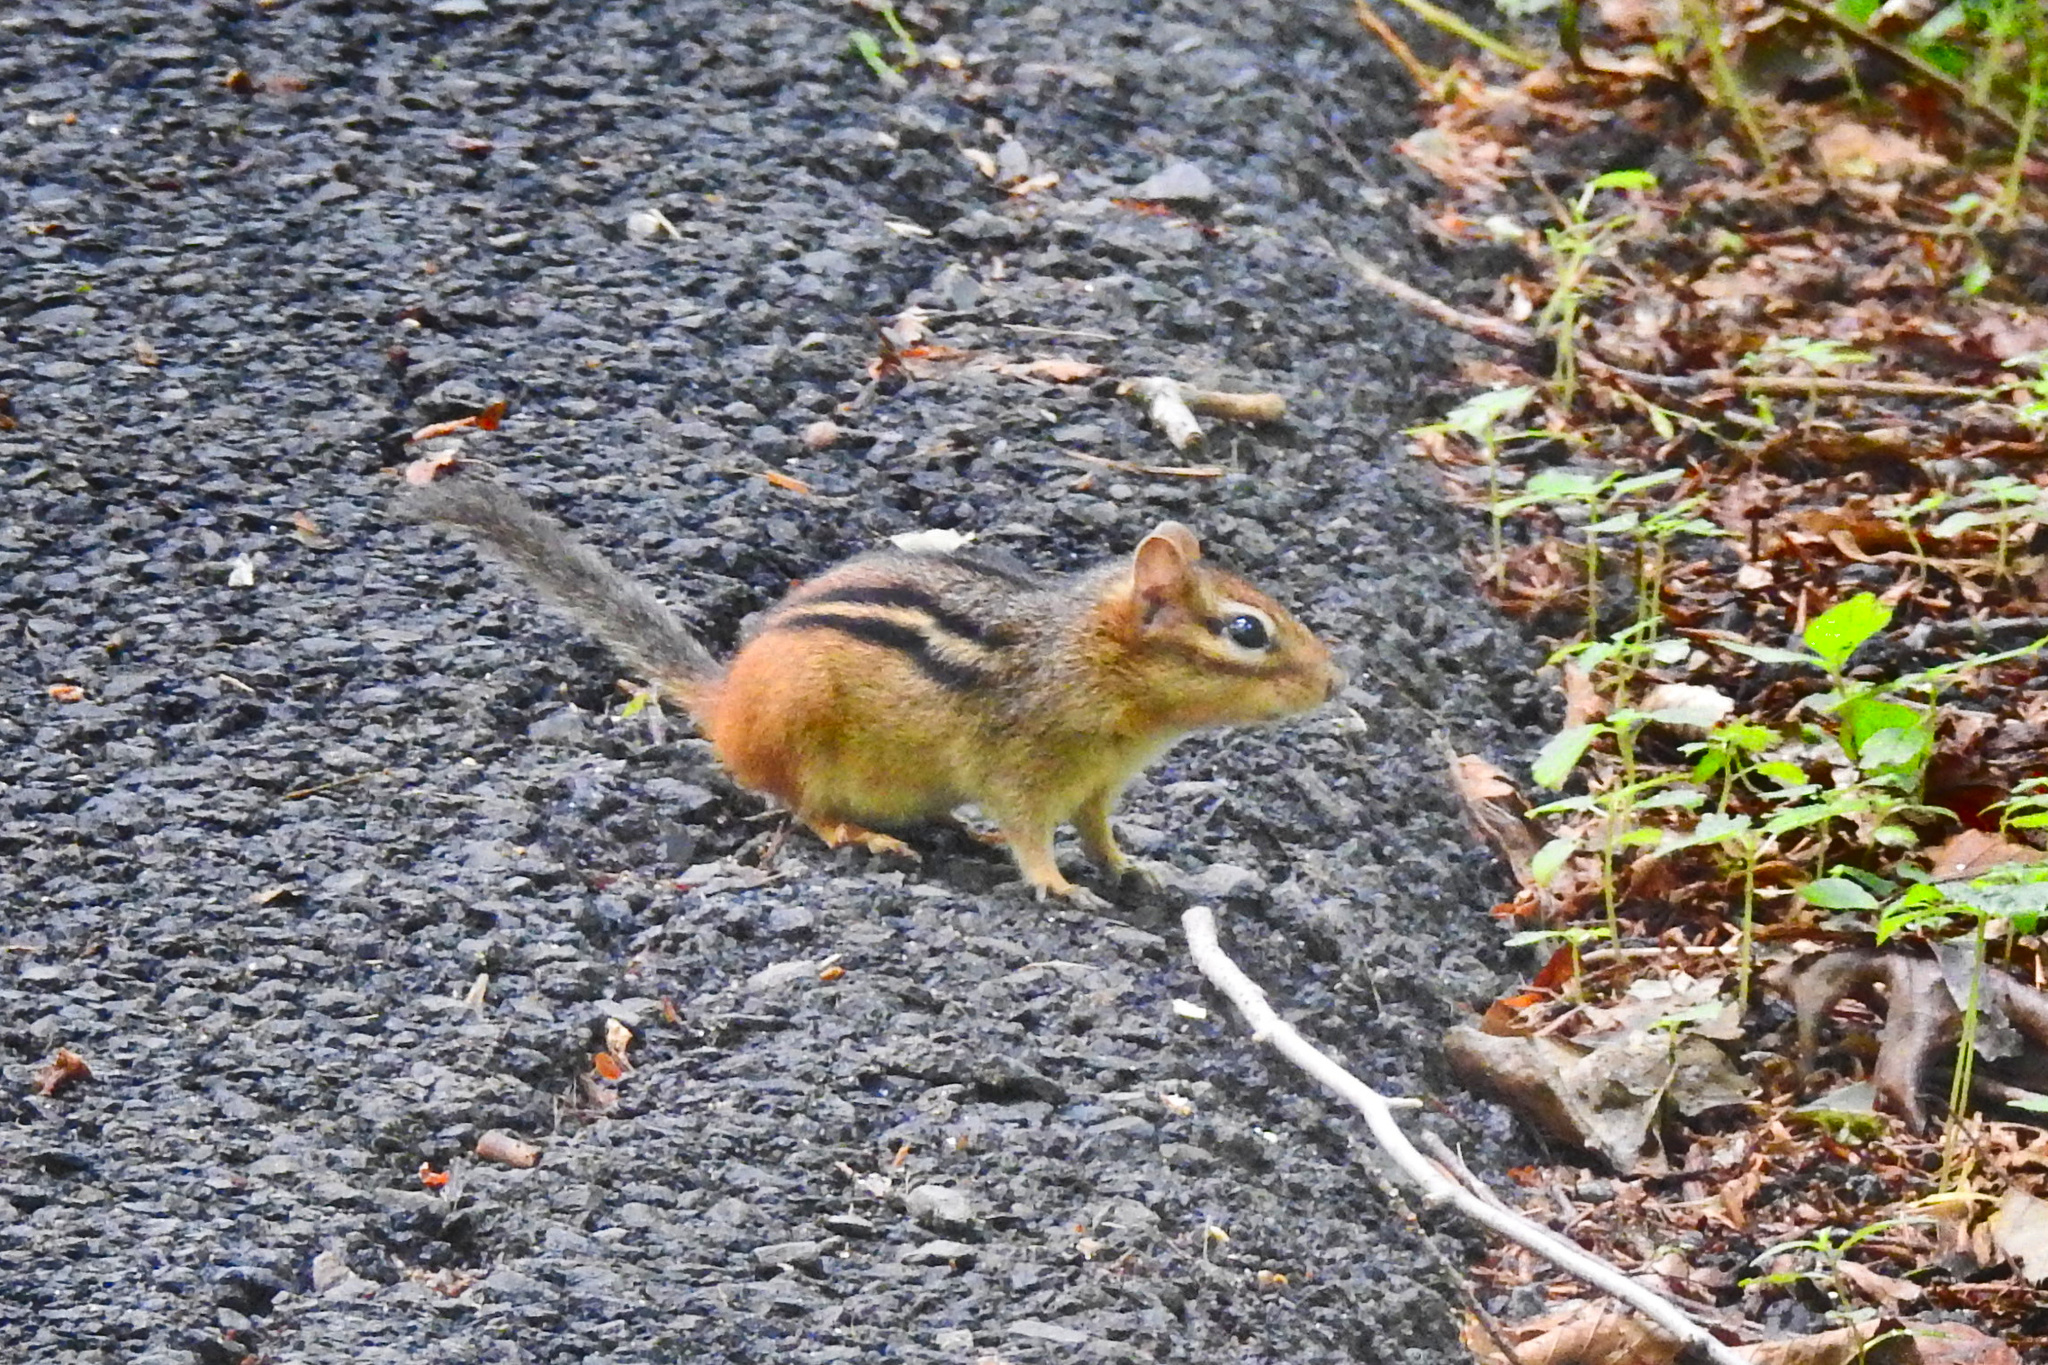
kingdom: Animalia
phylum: Chordata
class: Mammalia
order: Rodentia
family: Sciuridae
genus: Tamias
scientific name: Tamias striatus
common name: Eastern chipmunk
